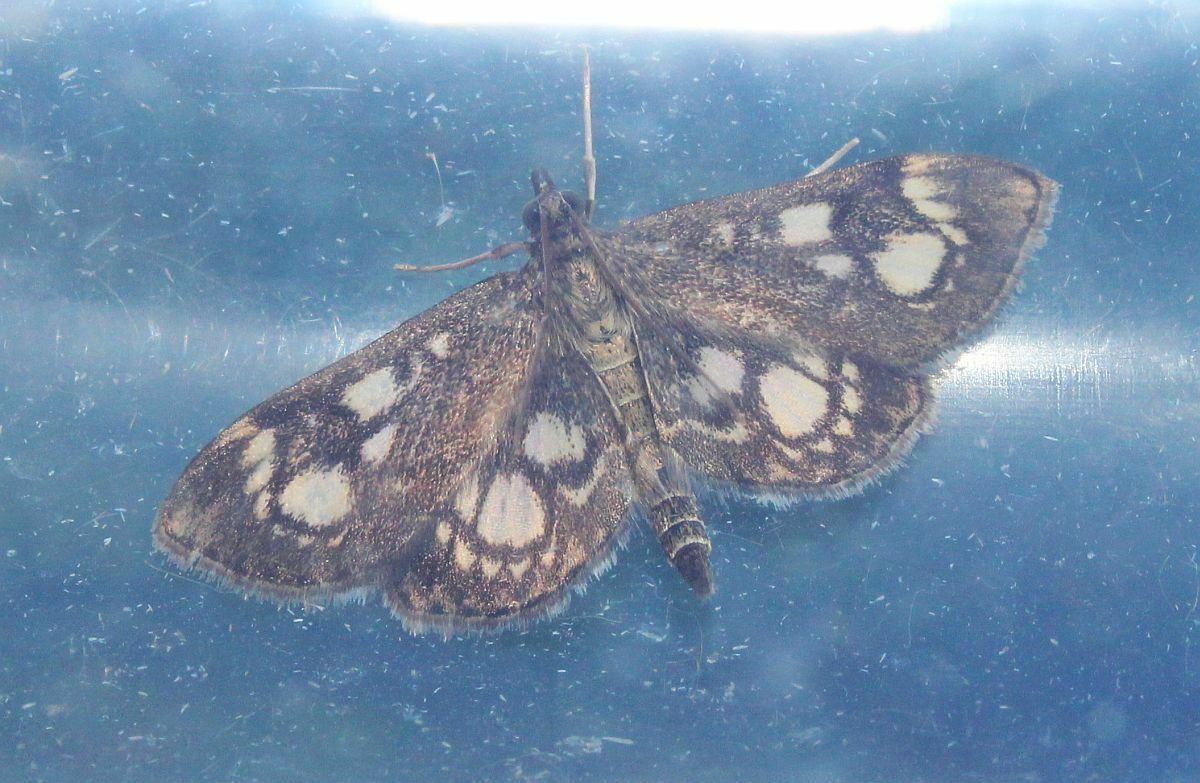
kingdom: Animalia
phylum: Arthropoda
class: Insecta
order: Lepidoptera
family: Crambidae
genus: Anania
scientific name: Anania coronata
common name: Elder pearl
